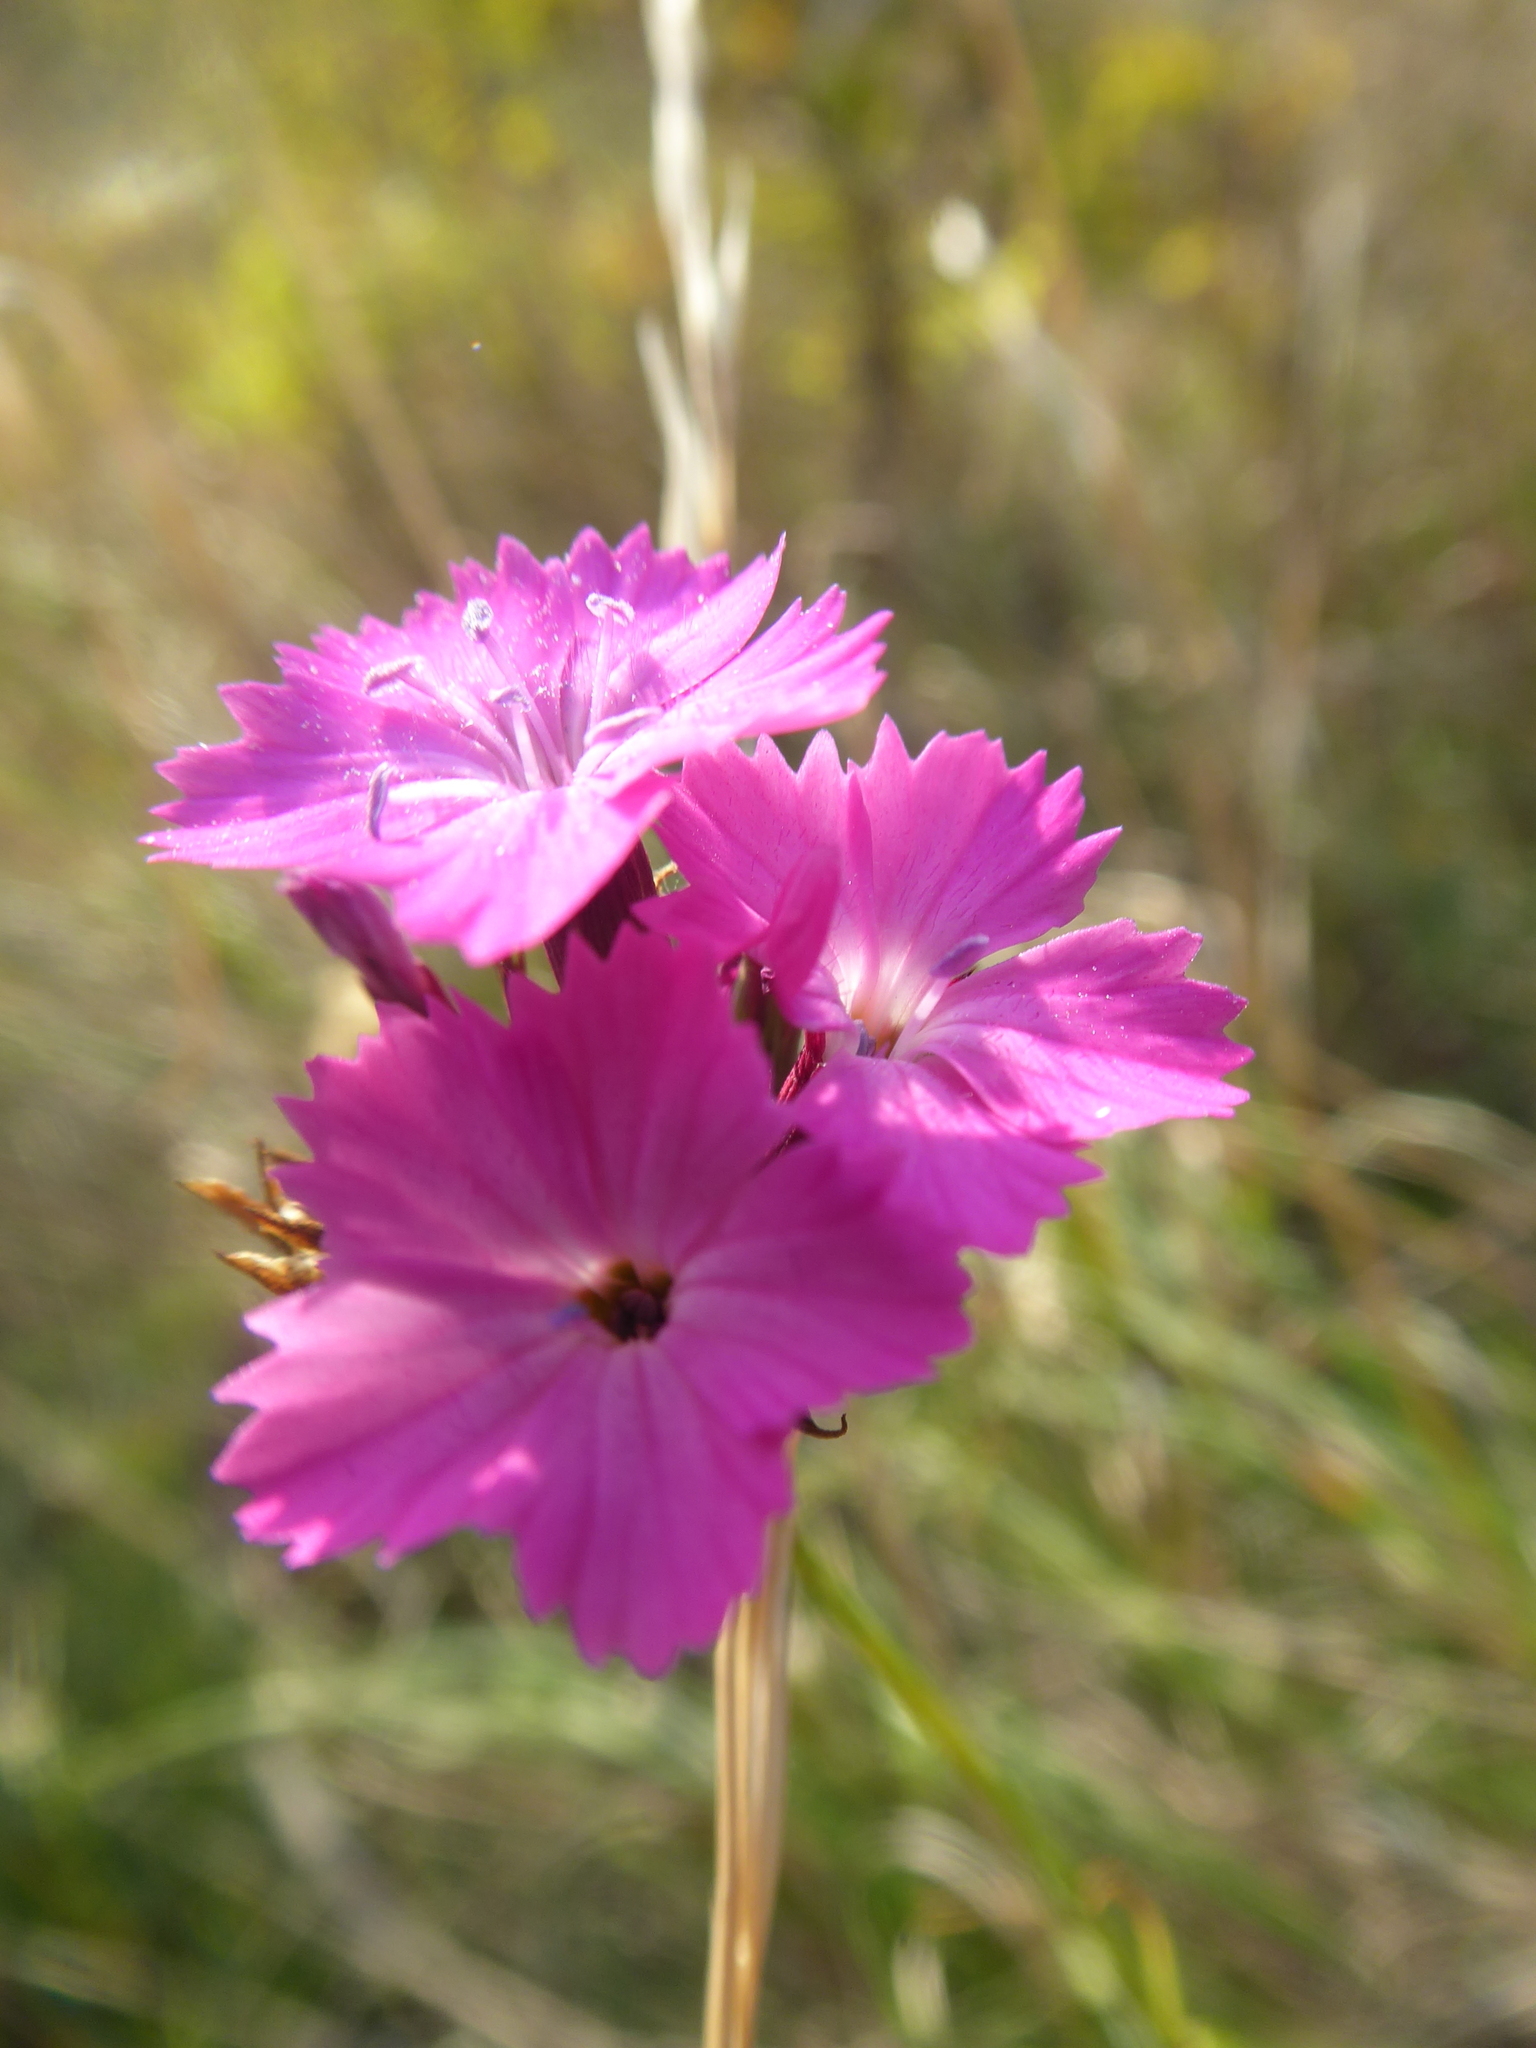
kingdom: Plantae
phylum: Tracheophyta
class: Magnoliopsida
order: Caryophyllales
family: Caryophyllaceae
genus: Dianthus
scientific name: Dianthus carthusianorum
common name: Carthusian pink
